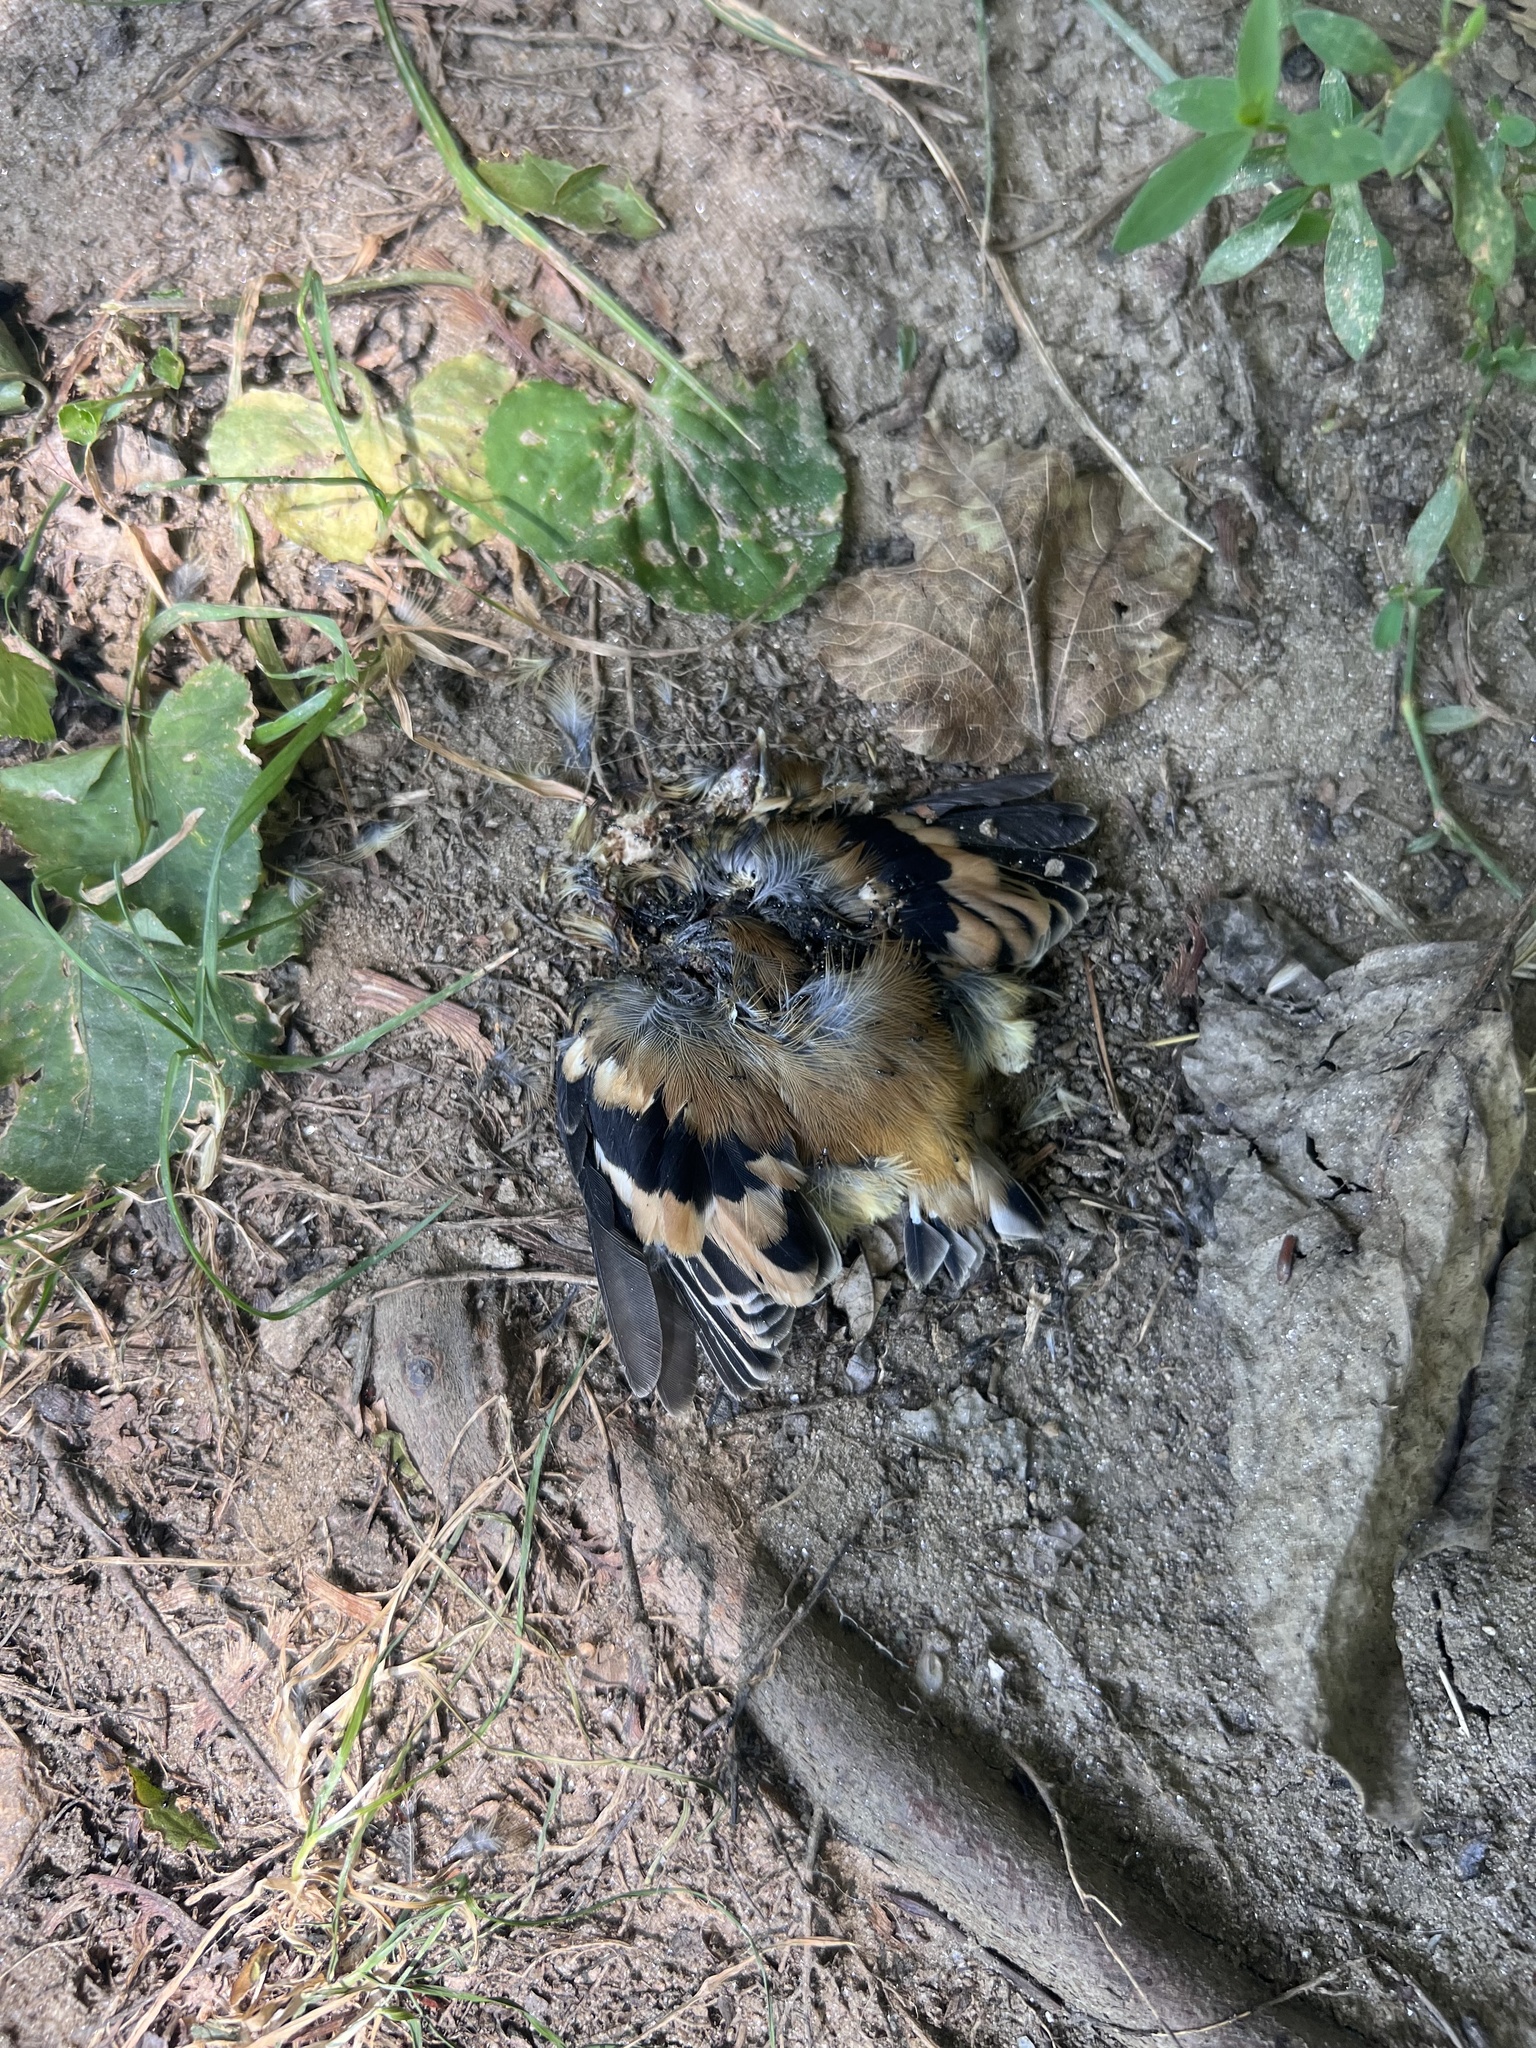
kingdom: Animalia
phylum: Chordata
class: Aves
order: Passeriformes
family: Fringillidae
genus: Spinus
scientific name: Spinus tristis
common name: American goldfinch
